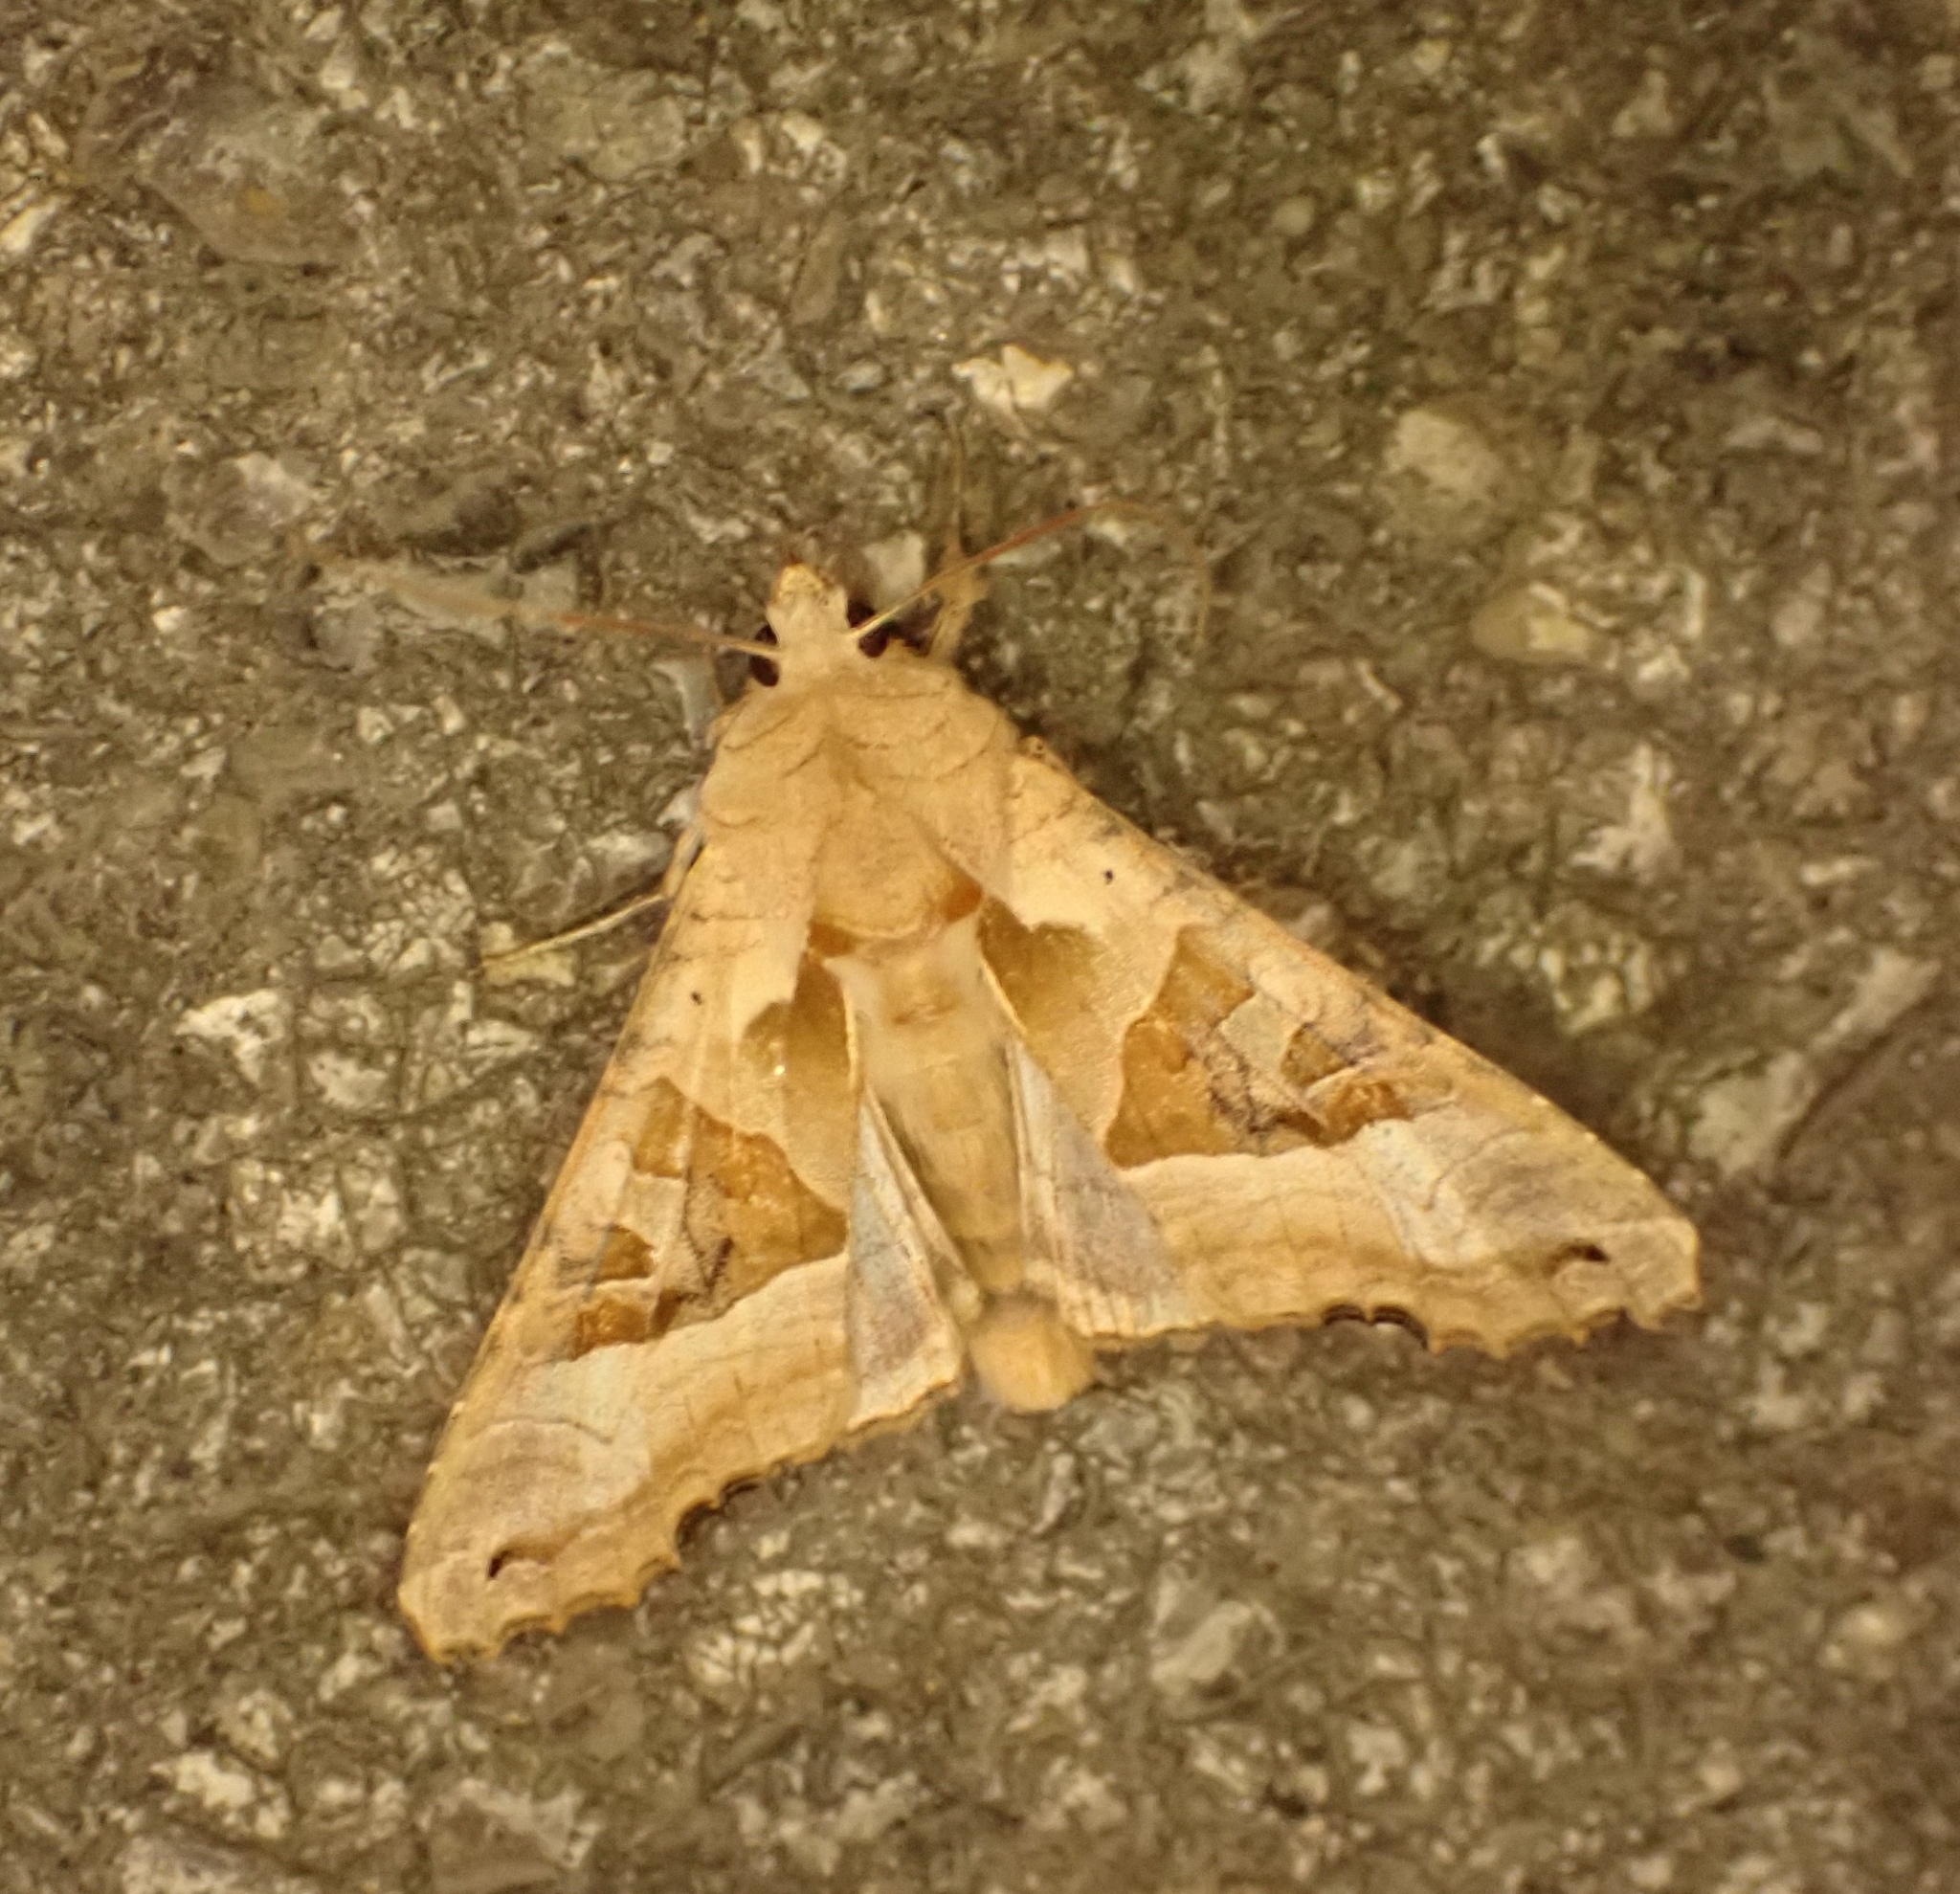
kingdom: Animalia
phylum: Arthropoda
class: Insecta
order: Lepidoptera
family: Noctuidae
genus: Phlogophora
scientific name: Phlogophora meticulosa
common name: Angle shades
